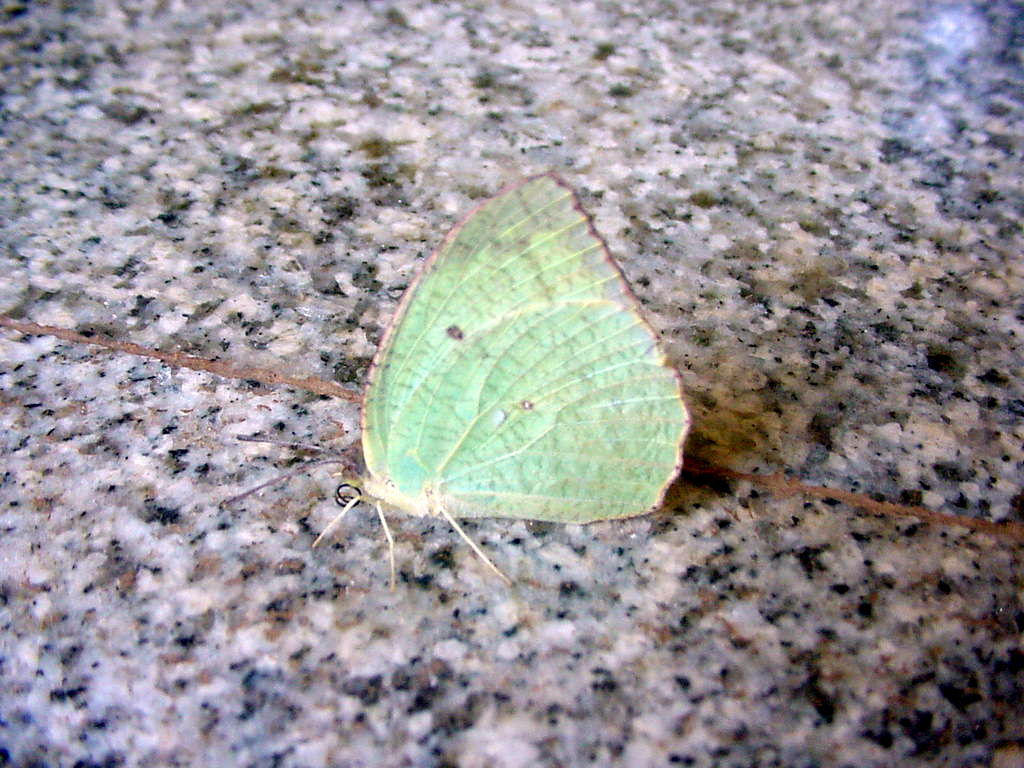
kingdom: Animalia
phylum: Arthropoda
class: Insecta
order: Lepidoptera
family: Pieridae
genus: Catopsilia
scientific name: Catopsilia pyranthe
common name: Mottled emigrant
